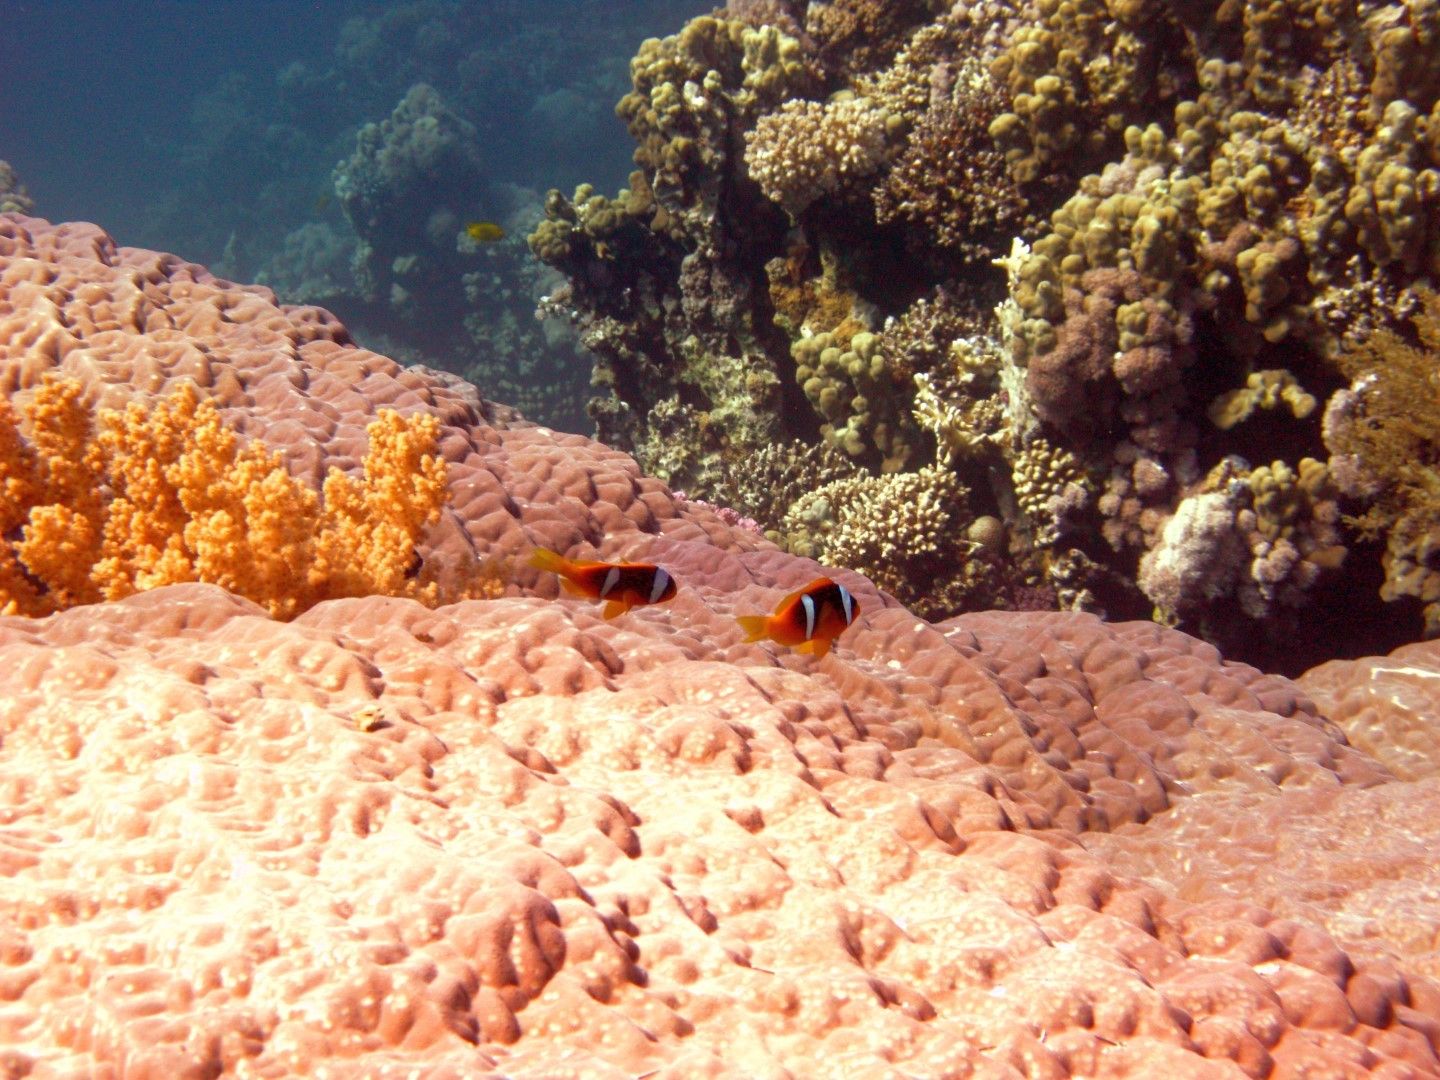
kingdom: Animalia
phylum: Chordata
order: Perciformes
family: Pomacentridae
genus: Amphiprion
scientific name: Amphiprion bicinctus
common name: Two-banded anemonefish
